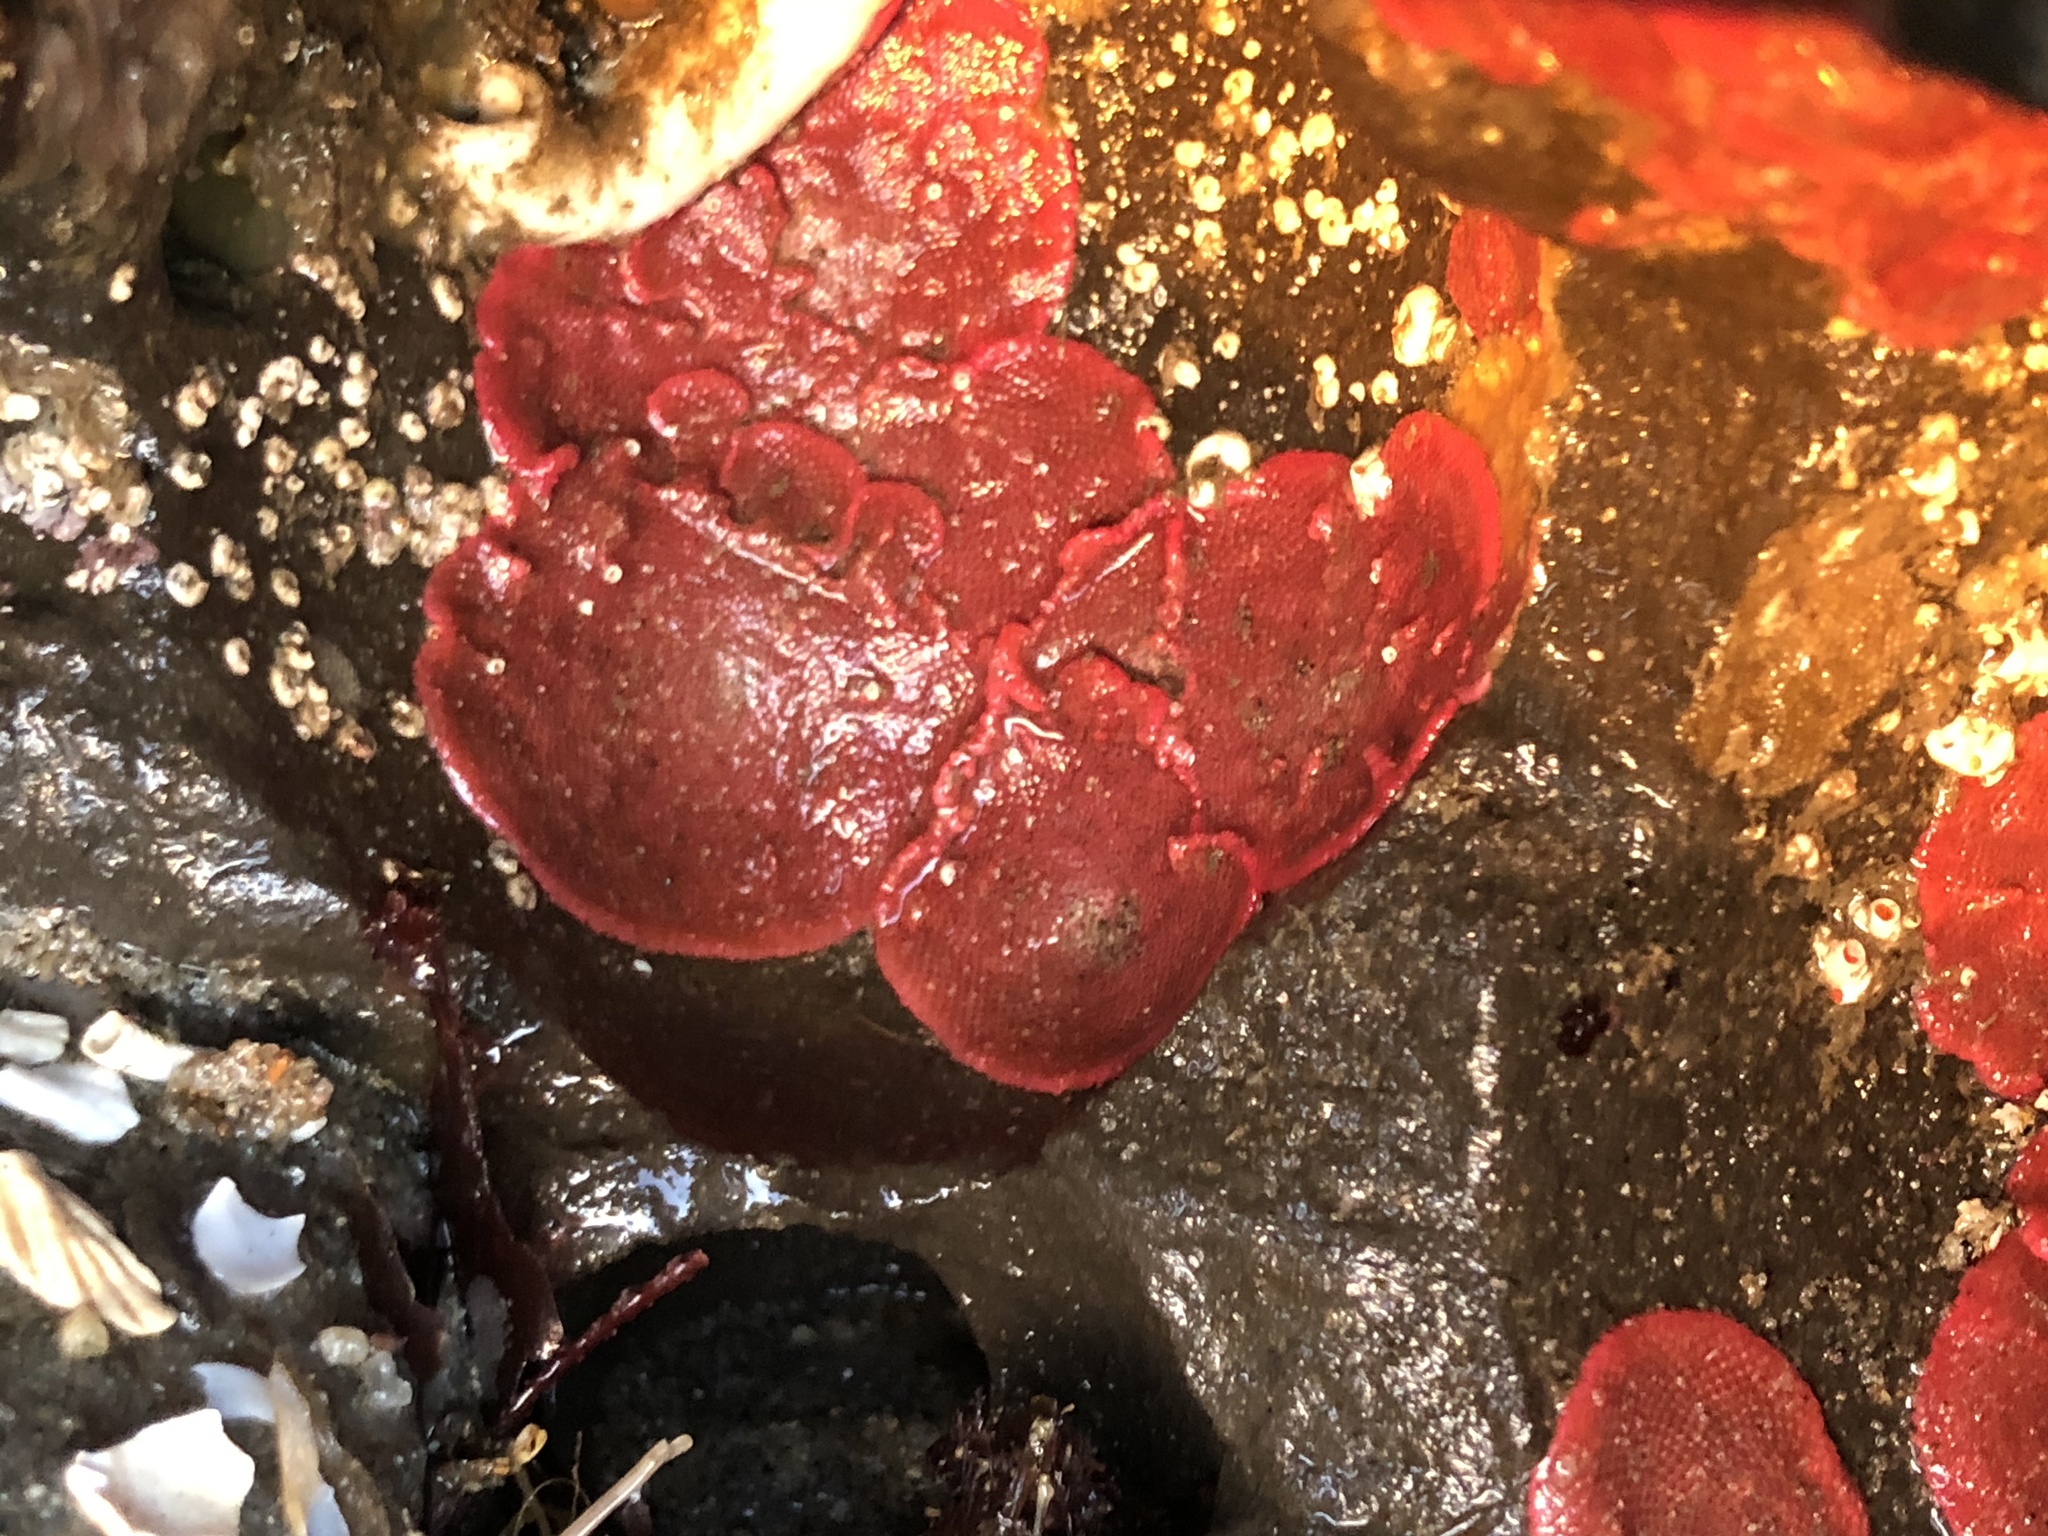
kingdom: Animalia
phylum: Bryozoa
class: Gymnolaemata
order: Cheilostomatida
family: Eurystomellidae
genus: Integripelta
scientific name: Integripelta bilabiata
